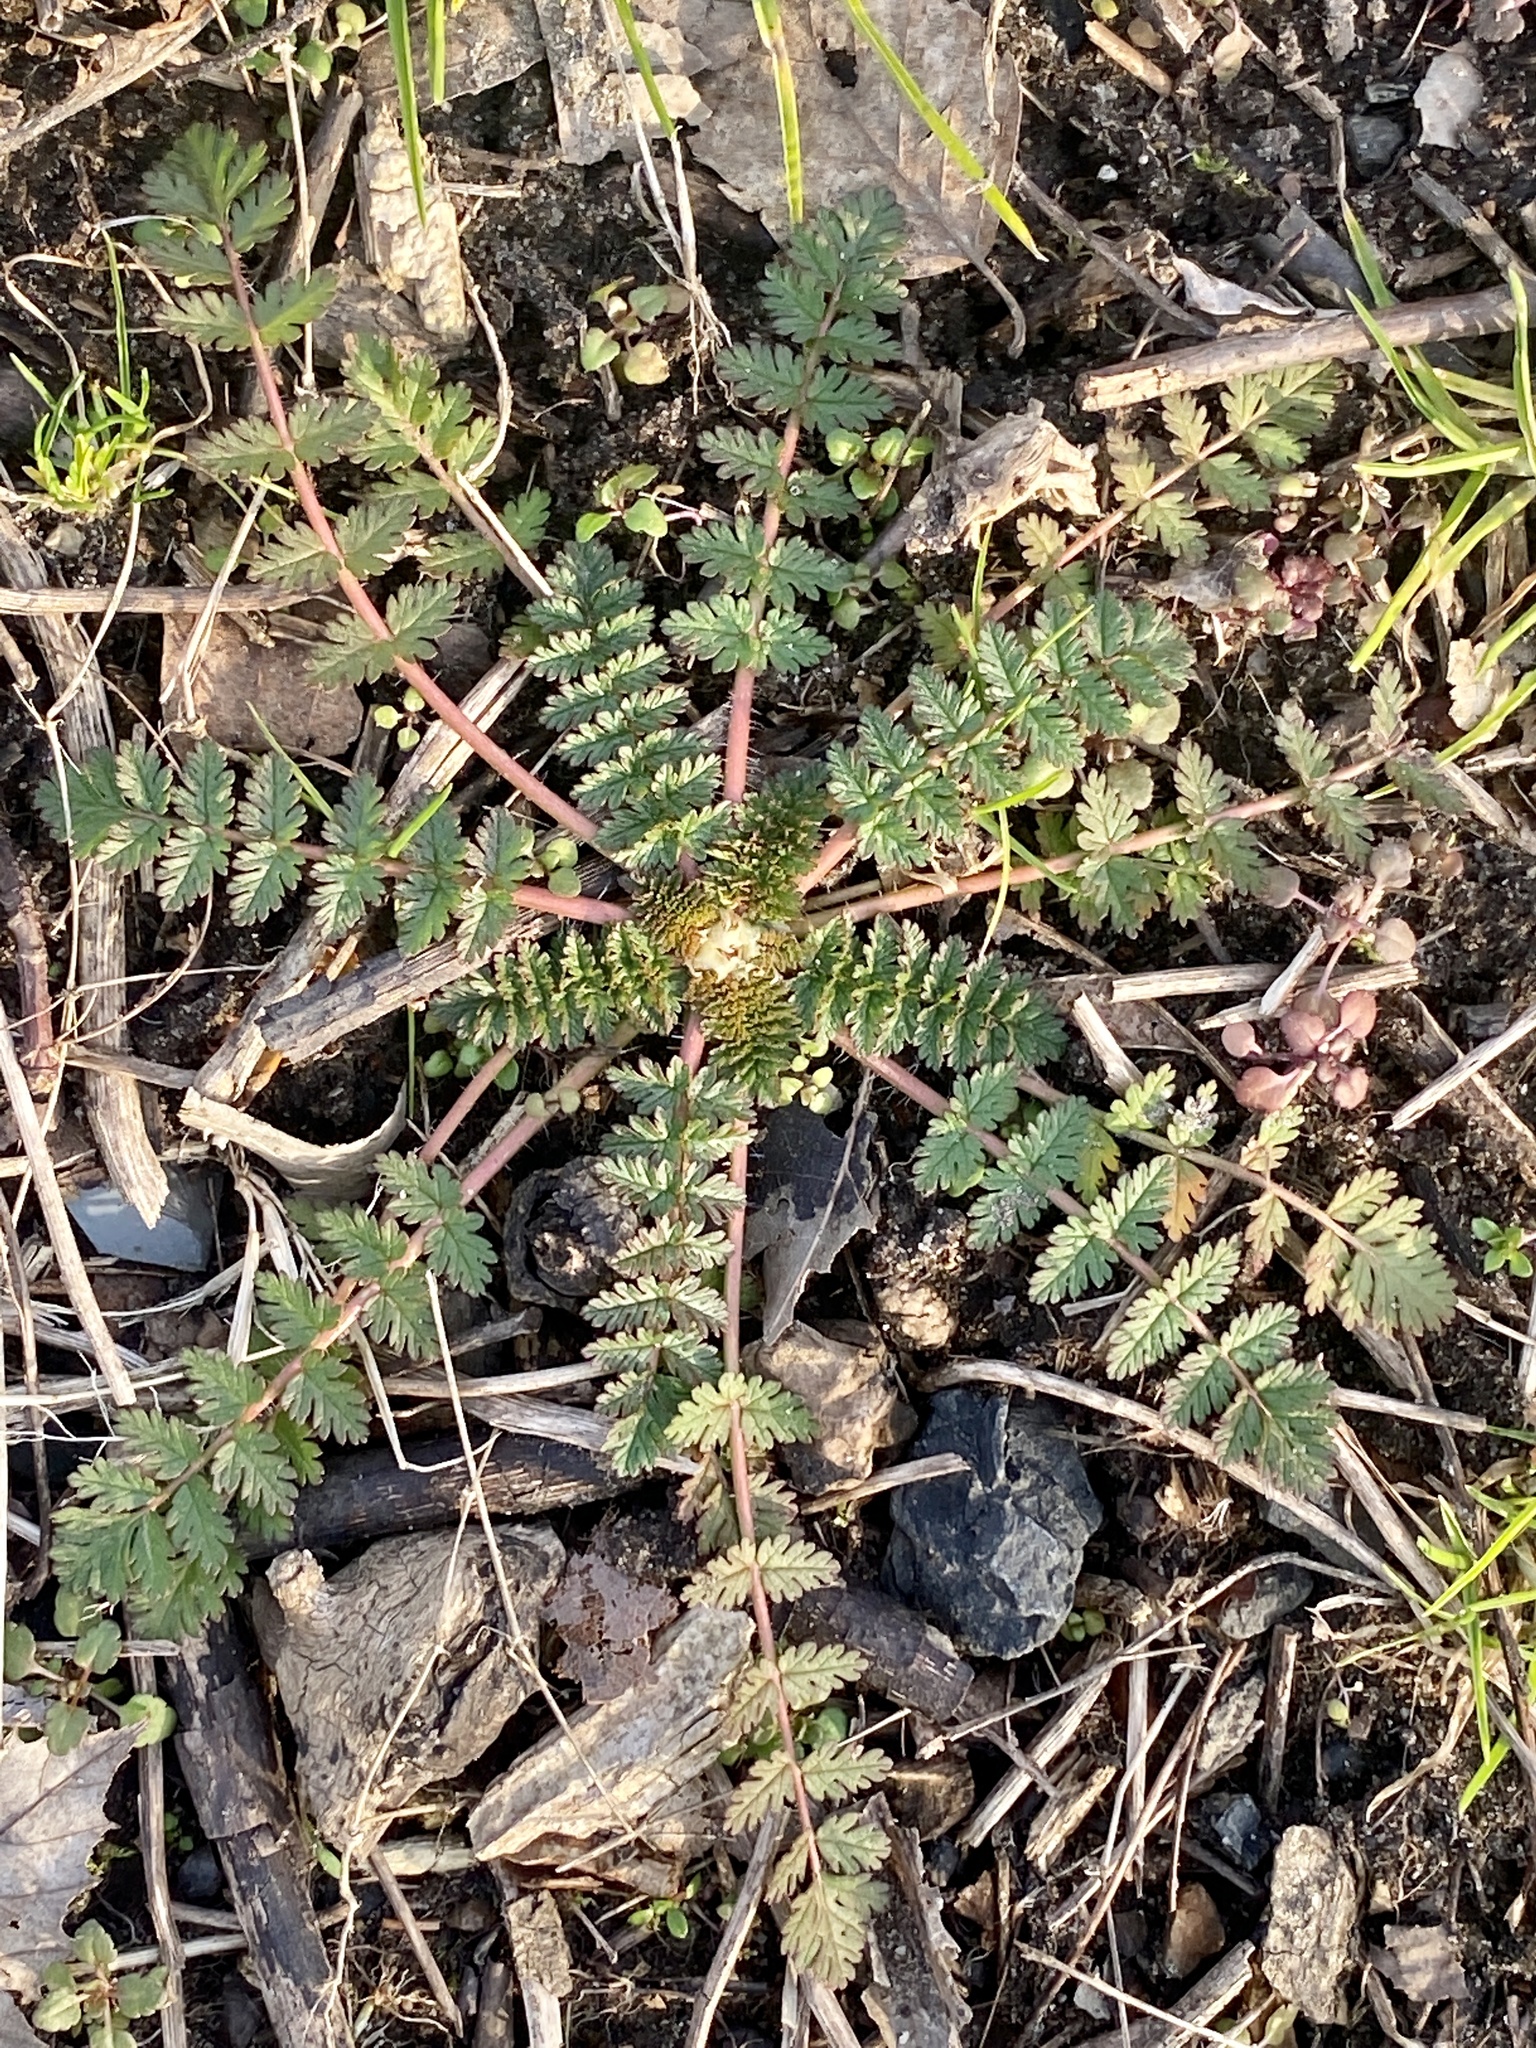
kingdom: Plantae
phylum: Tracheophyta
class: Magnoliopsida
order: Geraniales
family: Geraniaceae
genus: Erodium
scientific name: Erodium cicutarium
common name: Common stork's-bill
